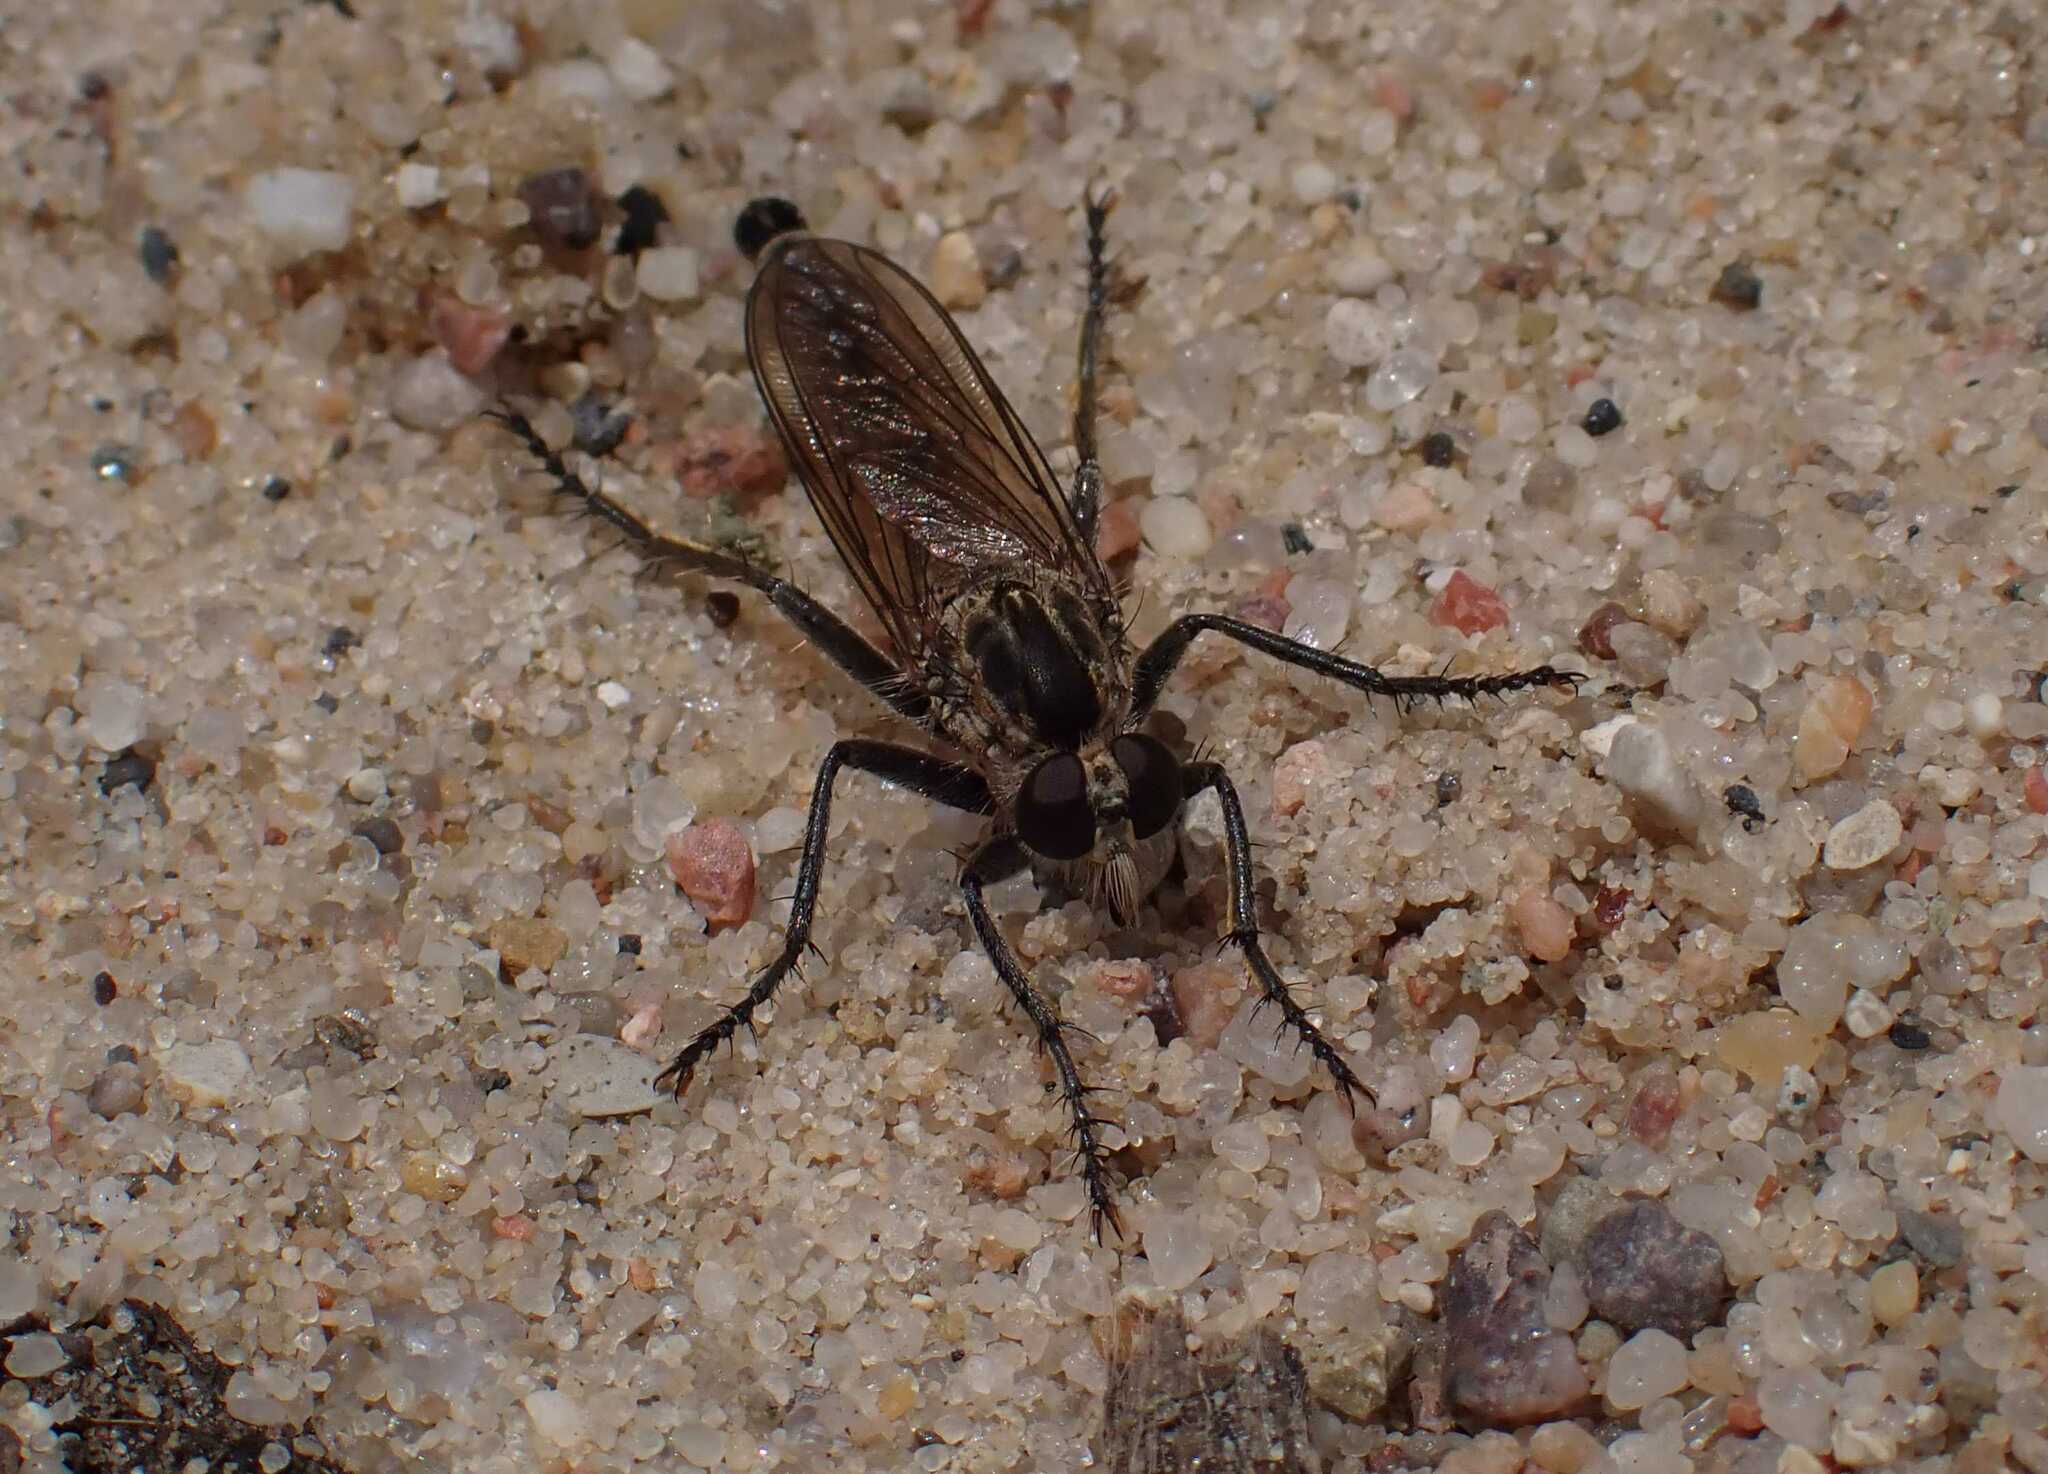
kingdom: Animalia
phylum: Arthropoda
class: Insecta
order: Diptera
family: Asilidae
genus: Philonicus
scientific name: Philonicus albiceps
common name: Dune robberfly
